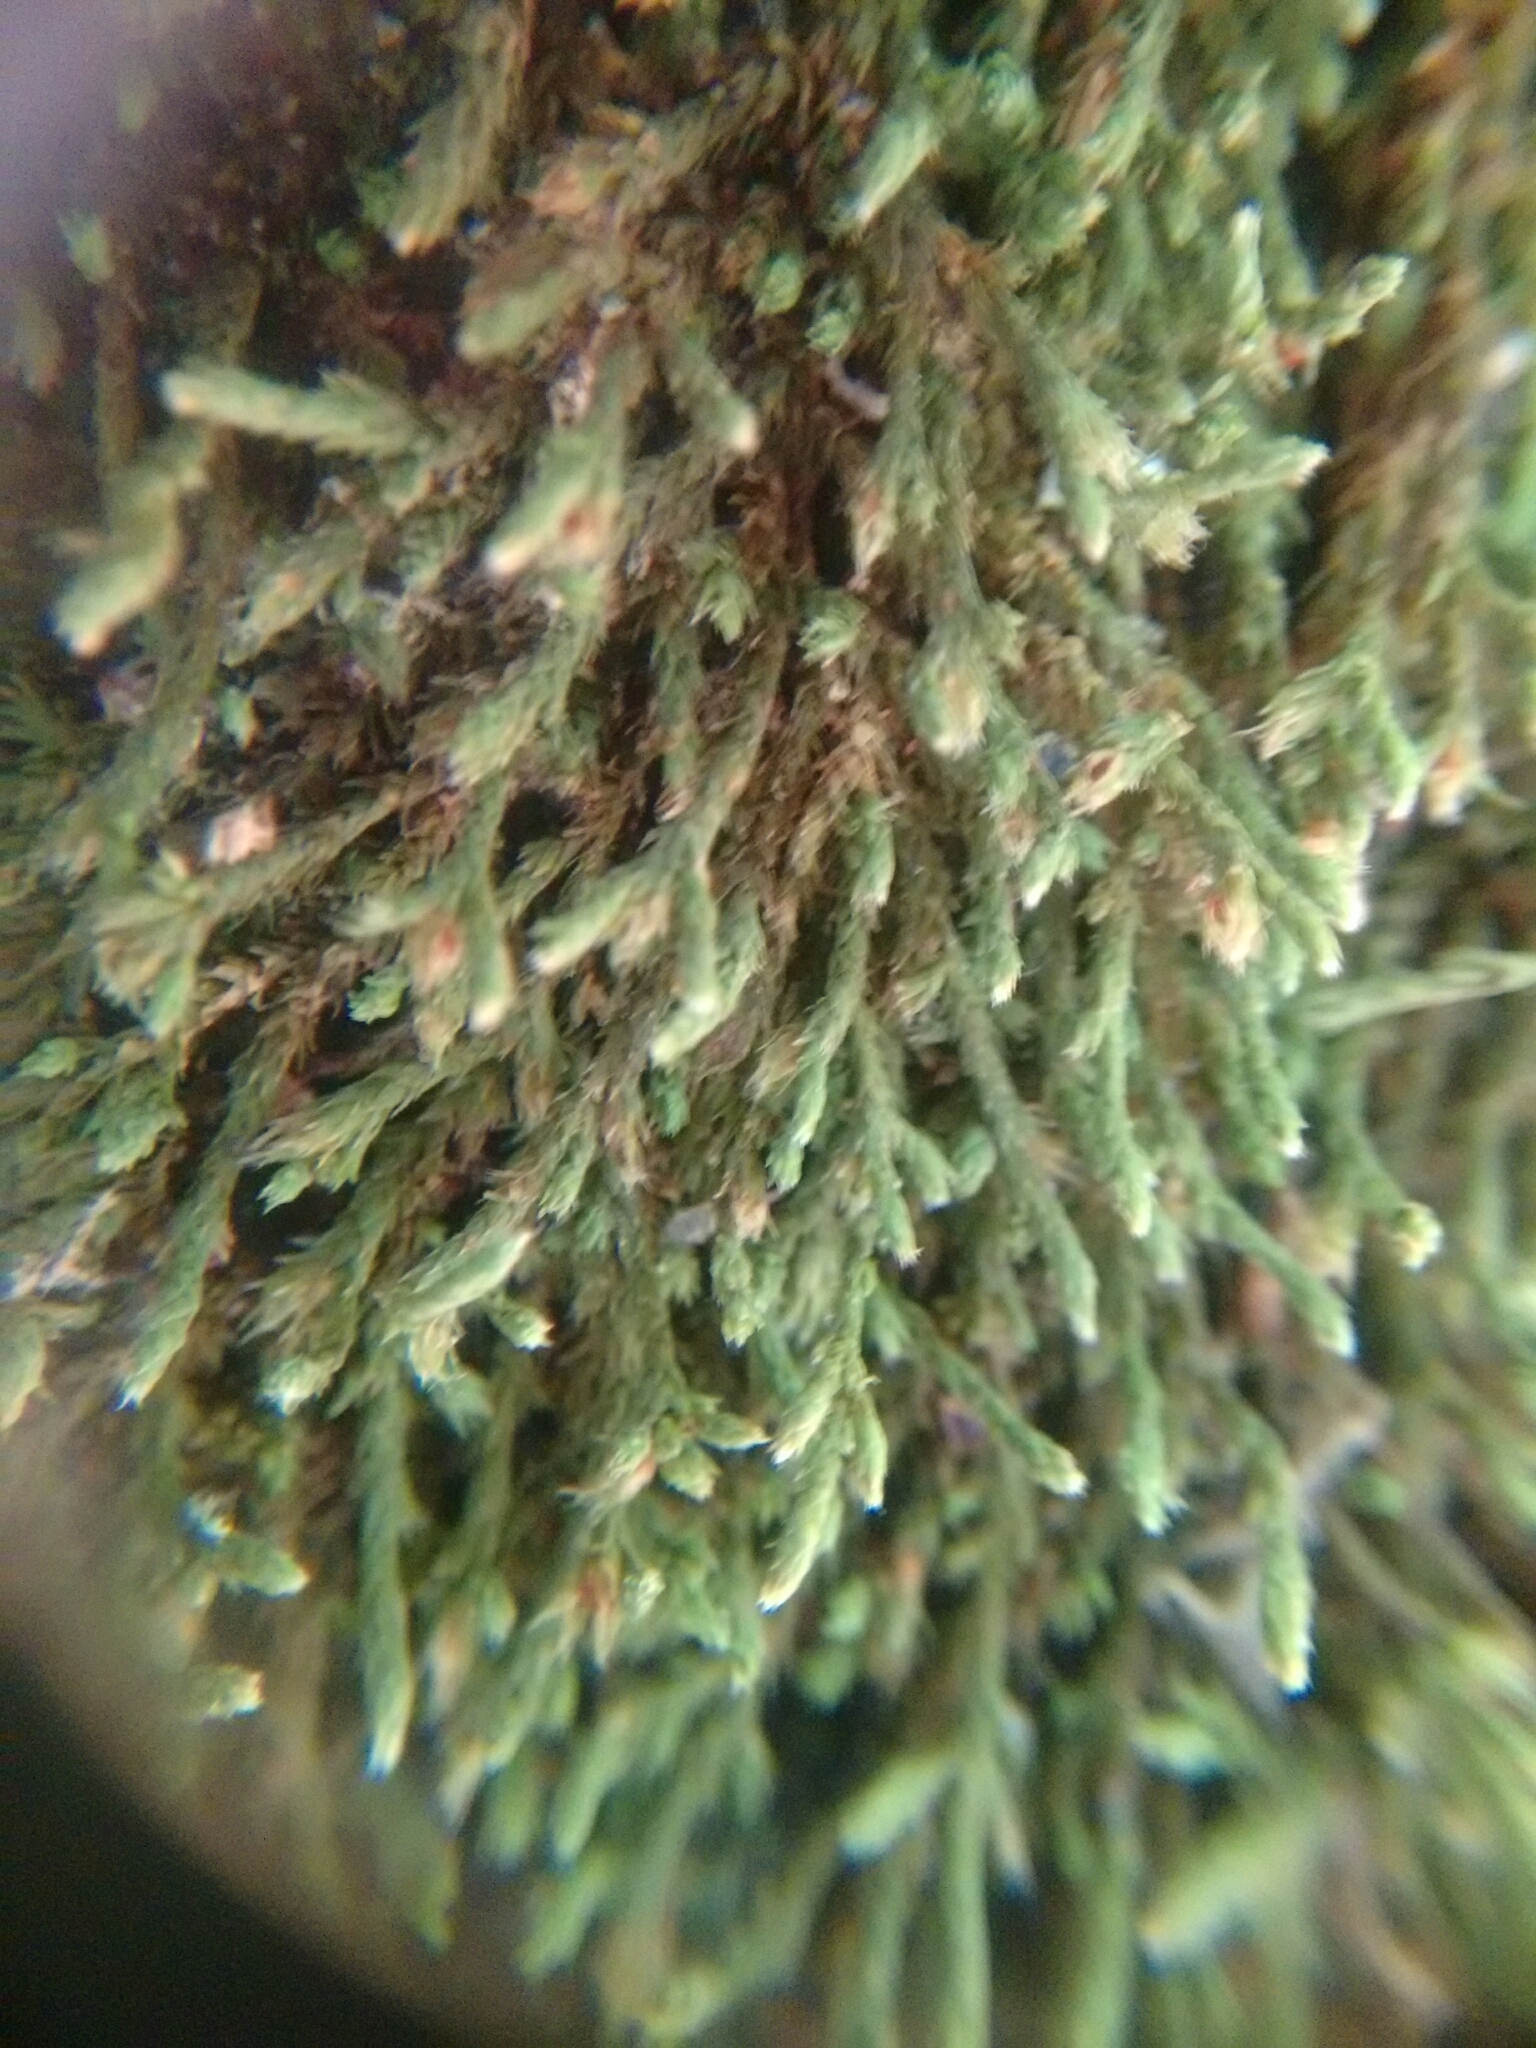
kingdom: Plantae
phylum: Bryophyta
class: Bryopsida
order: Hedwigiales
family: Hedwigiaceae
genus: Hedwigia
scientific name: Hedwigia ciliata
